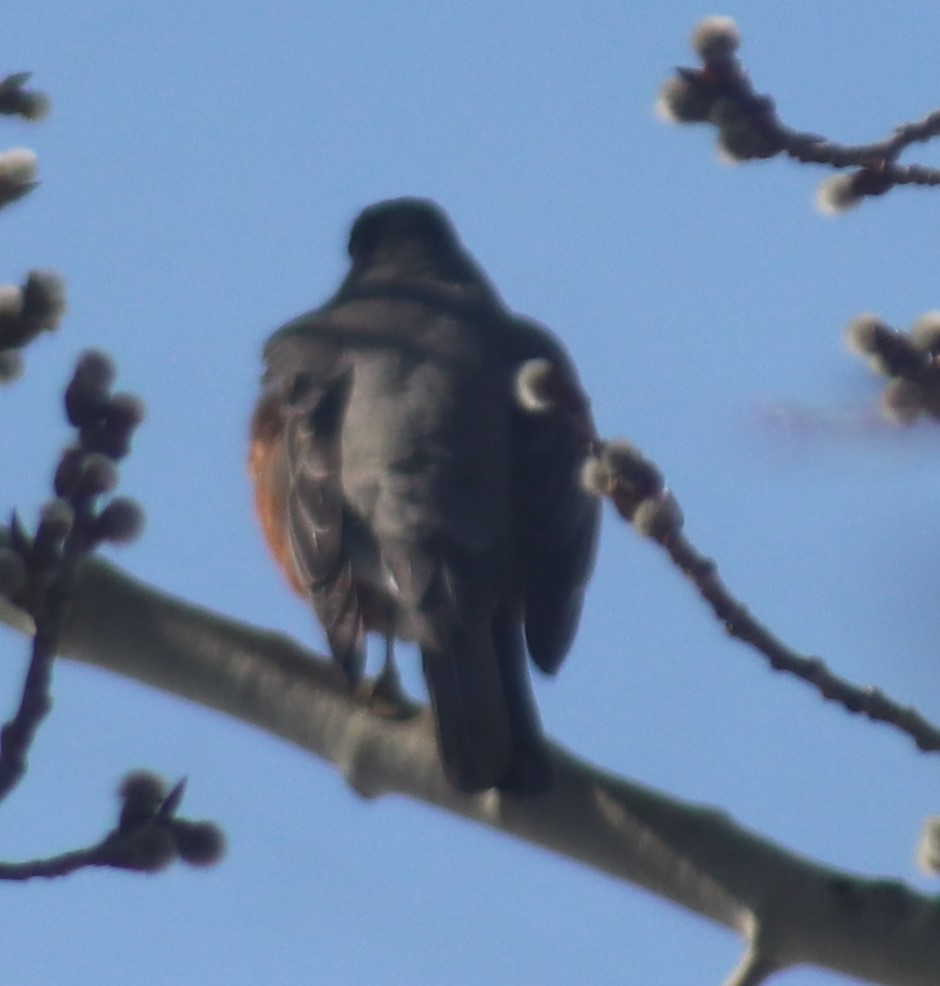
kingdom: Animalia
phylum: Chordata
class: Aves
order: Passeriformes
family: Turdidae
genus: Turdus
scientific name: Turdus migratorius
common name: American robin
